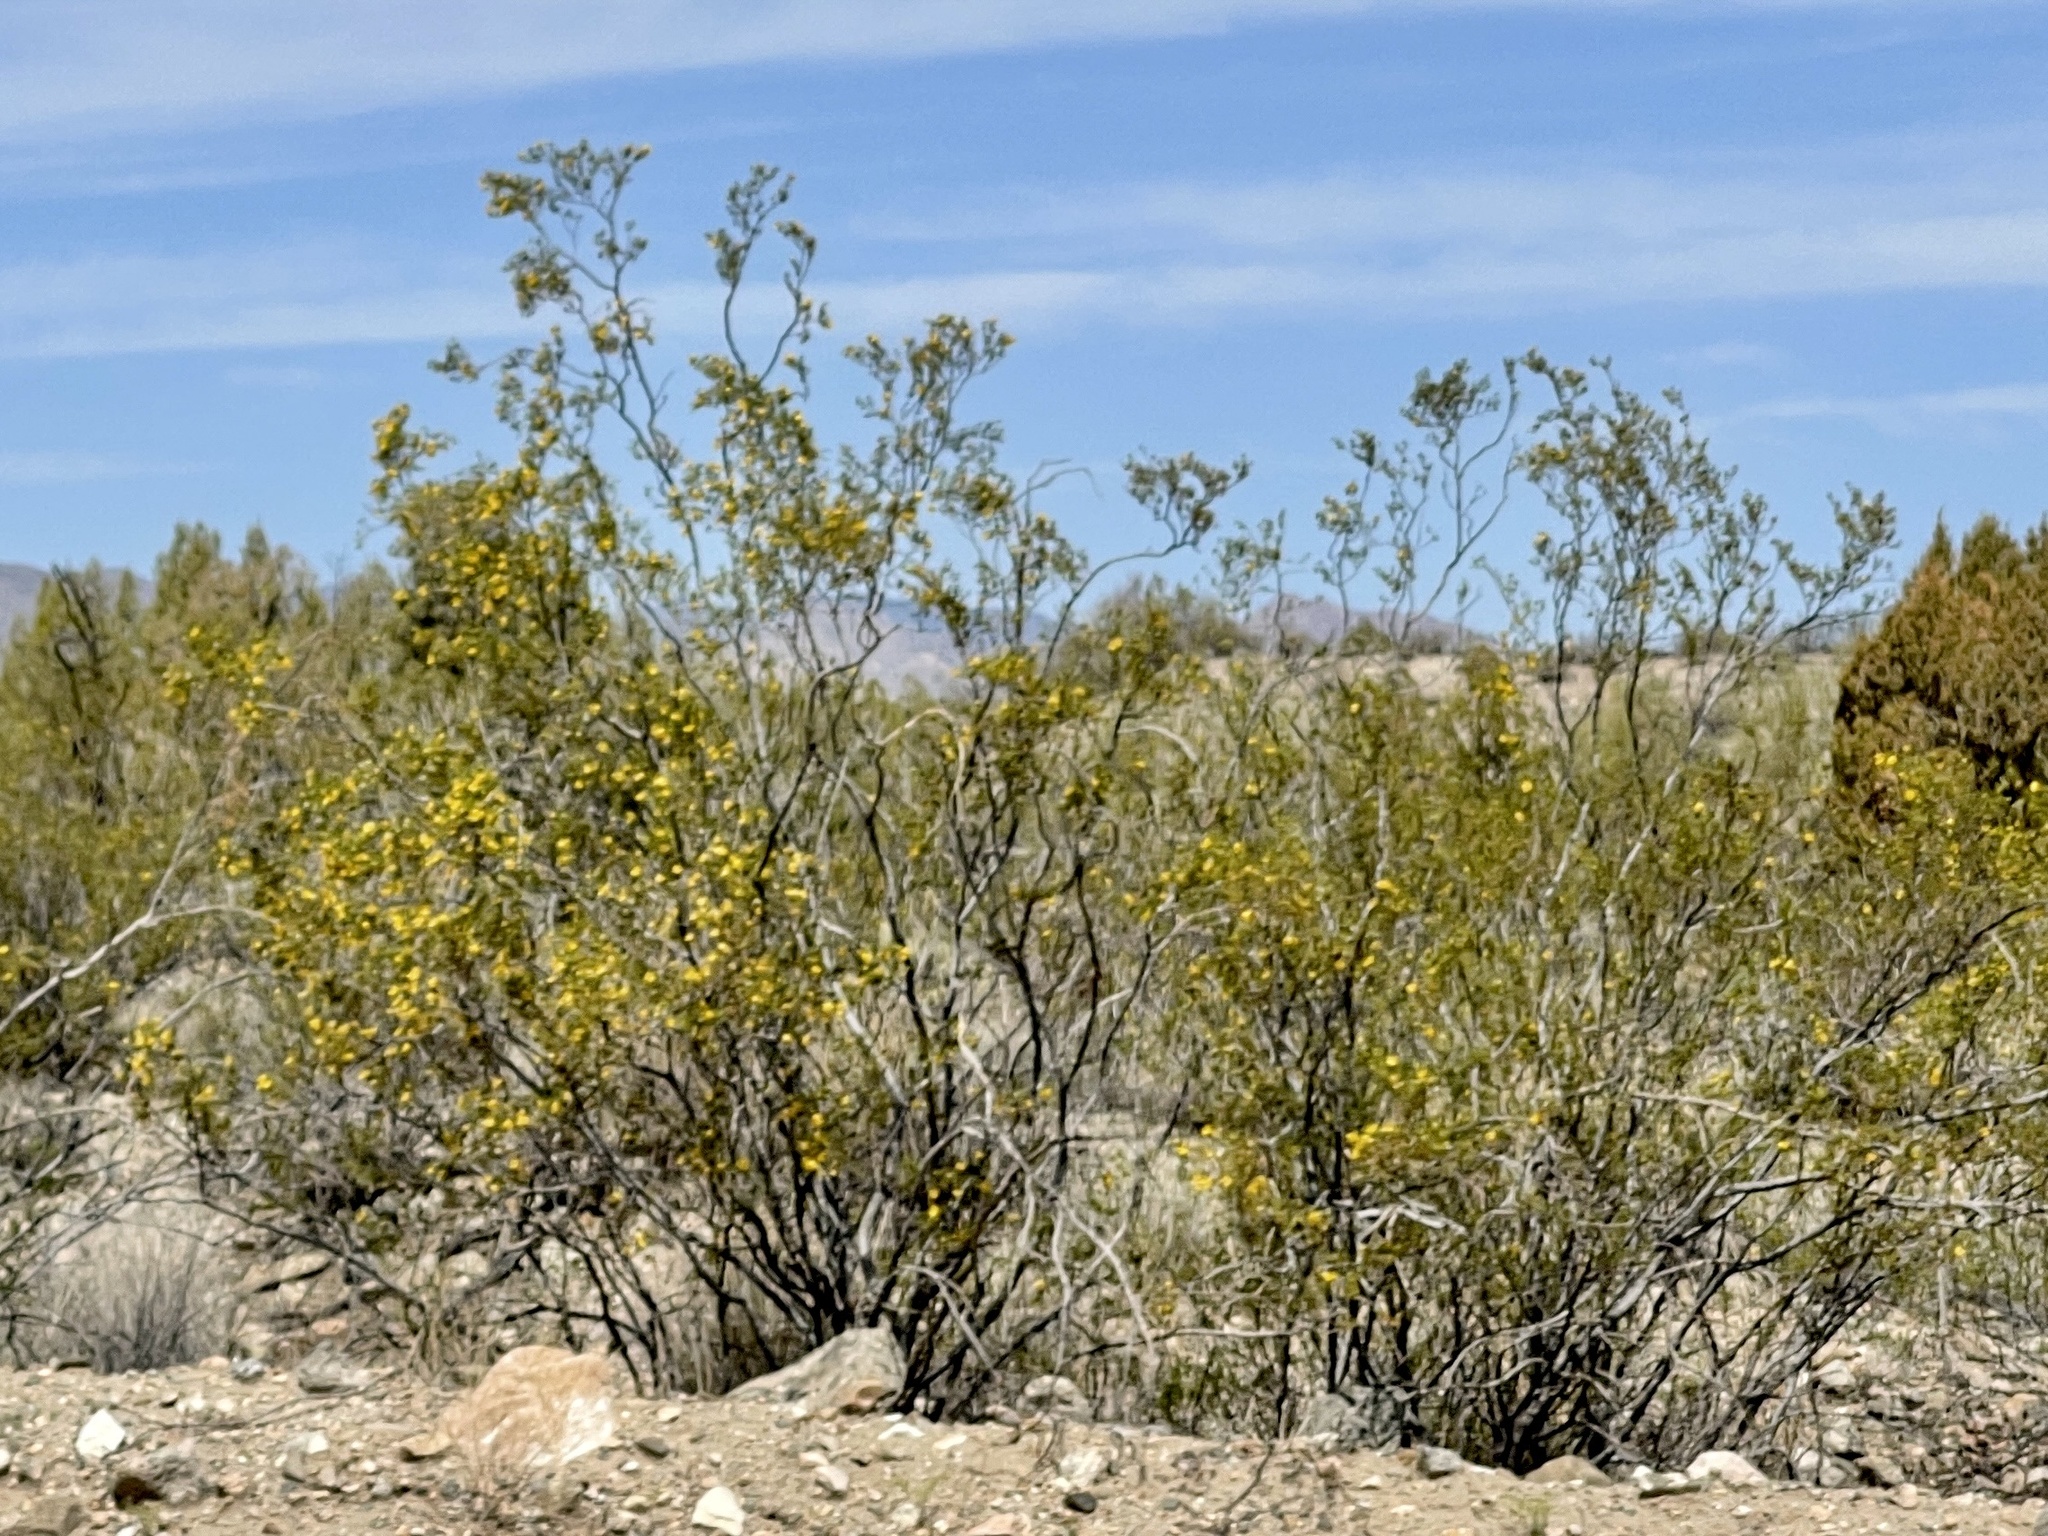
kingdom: Plantae
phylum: Tracheophyta
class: Magnoliopsida
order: Zygophyllales
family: Zygophyllaceae
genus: Larrea
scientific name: Larrea tridentata
